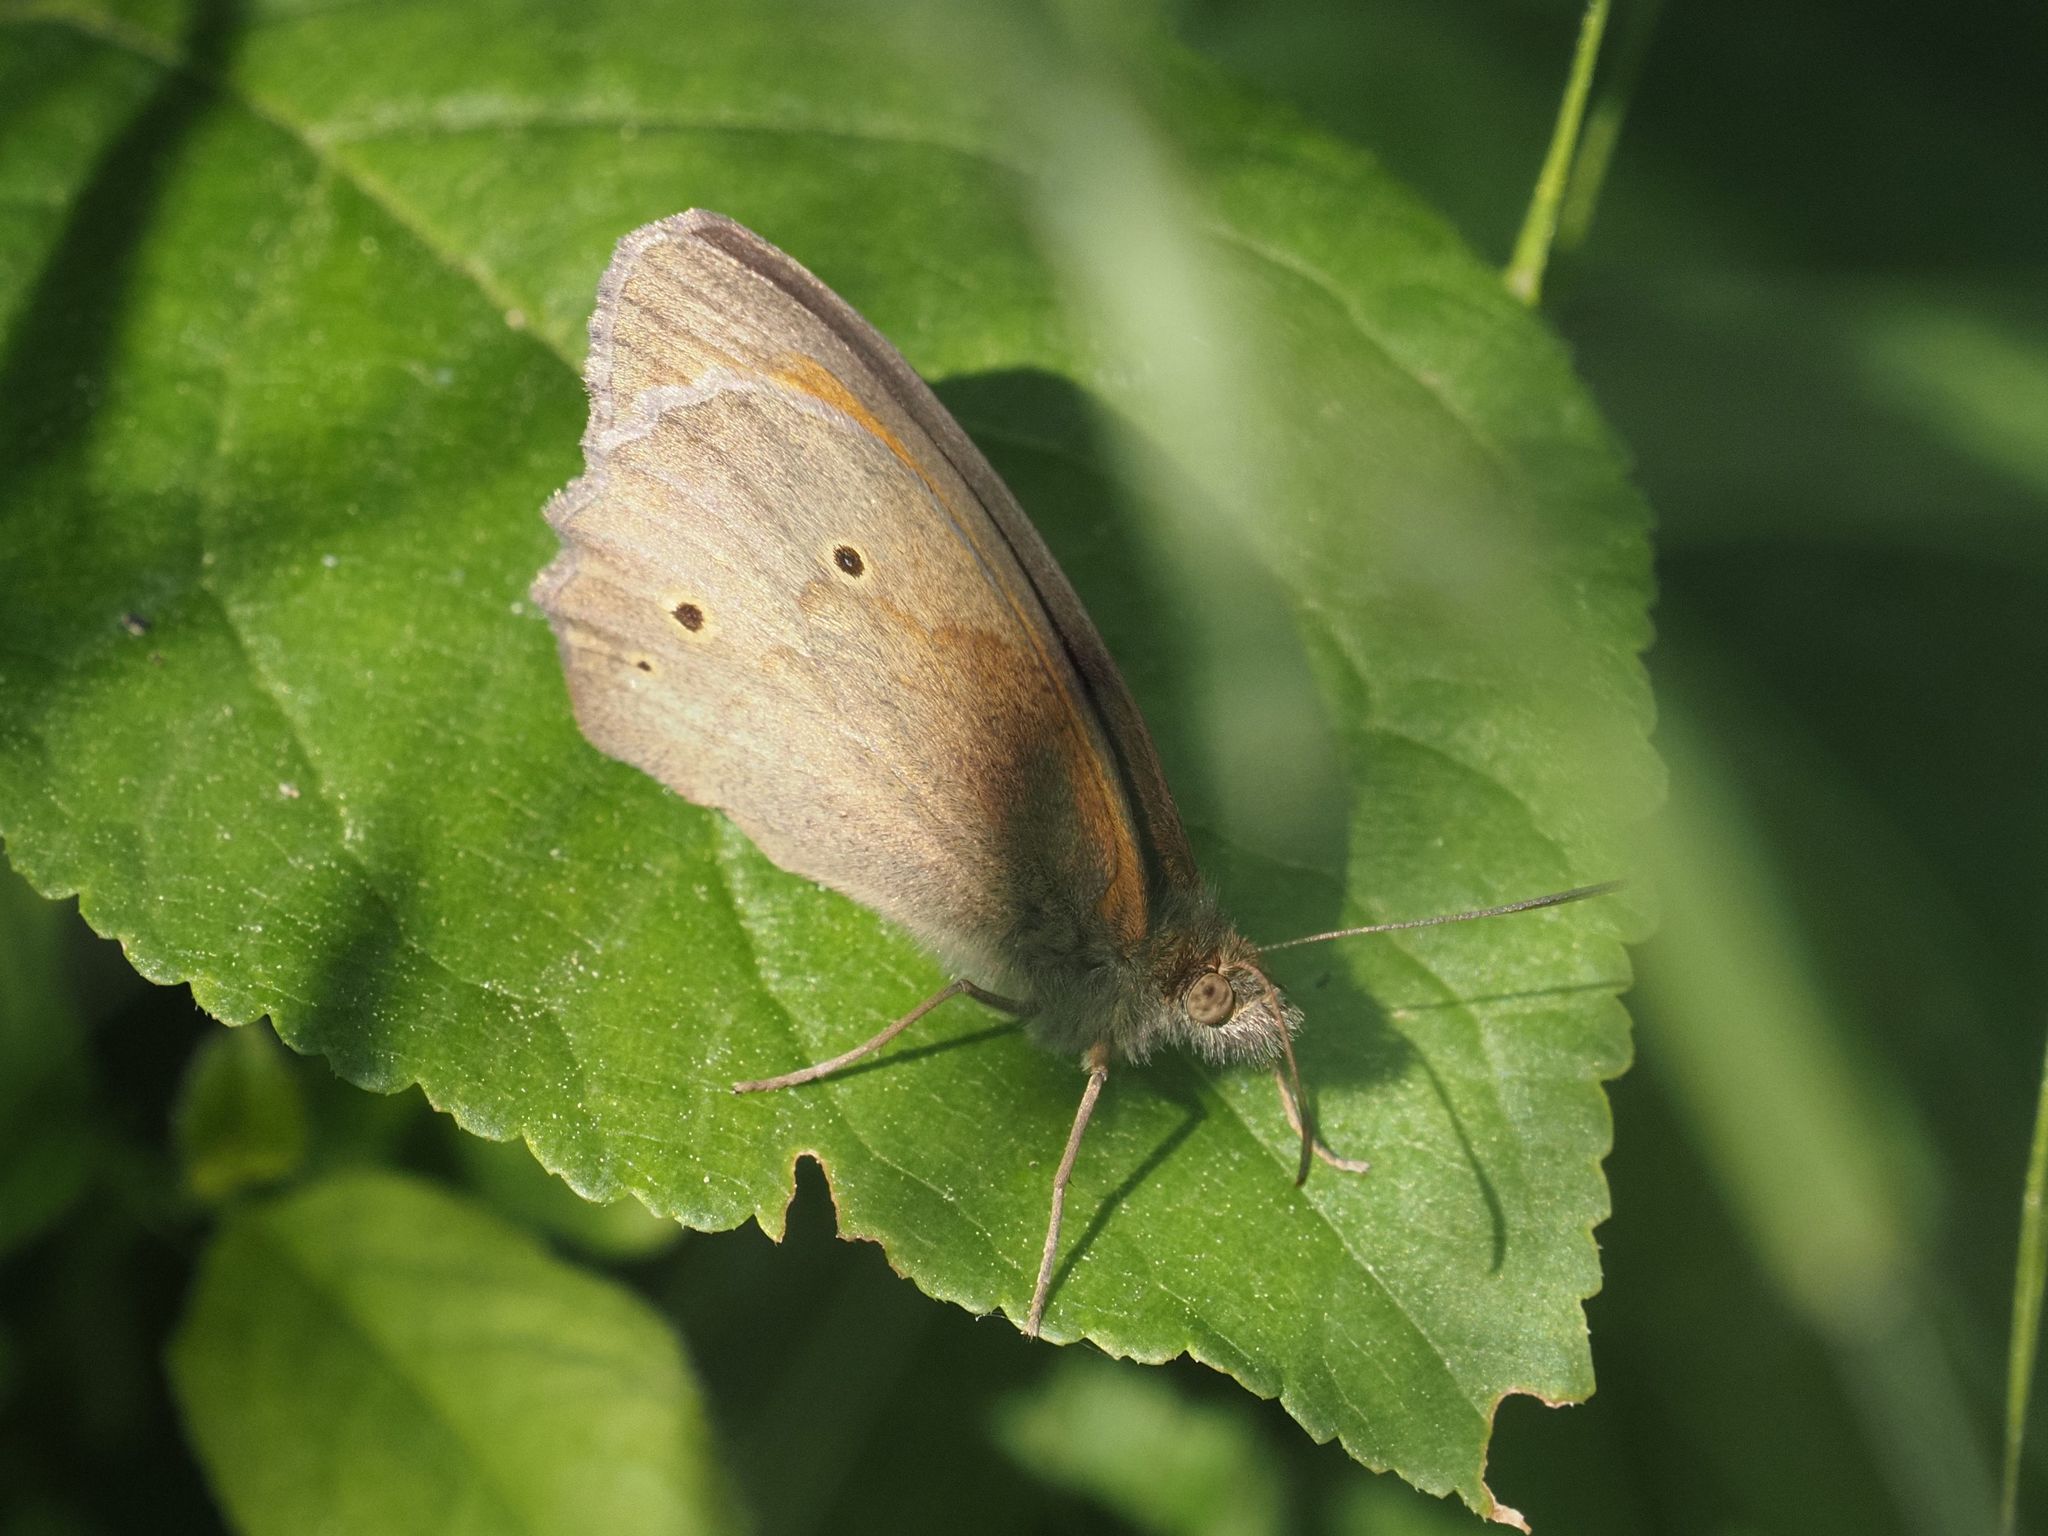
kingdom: Animalia
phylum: Arthropoda
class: Insecta
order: Lepidoptera
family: Nymphalidae
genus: Maniola
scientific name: Maniola jurtina
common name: Meadow brown
